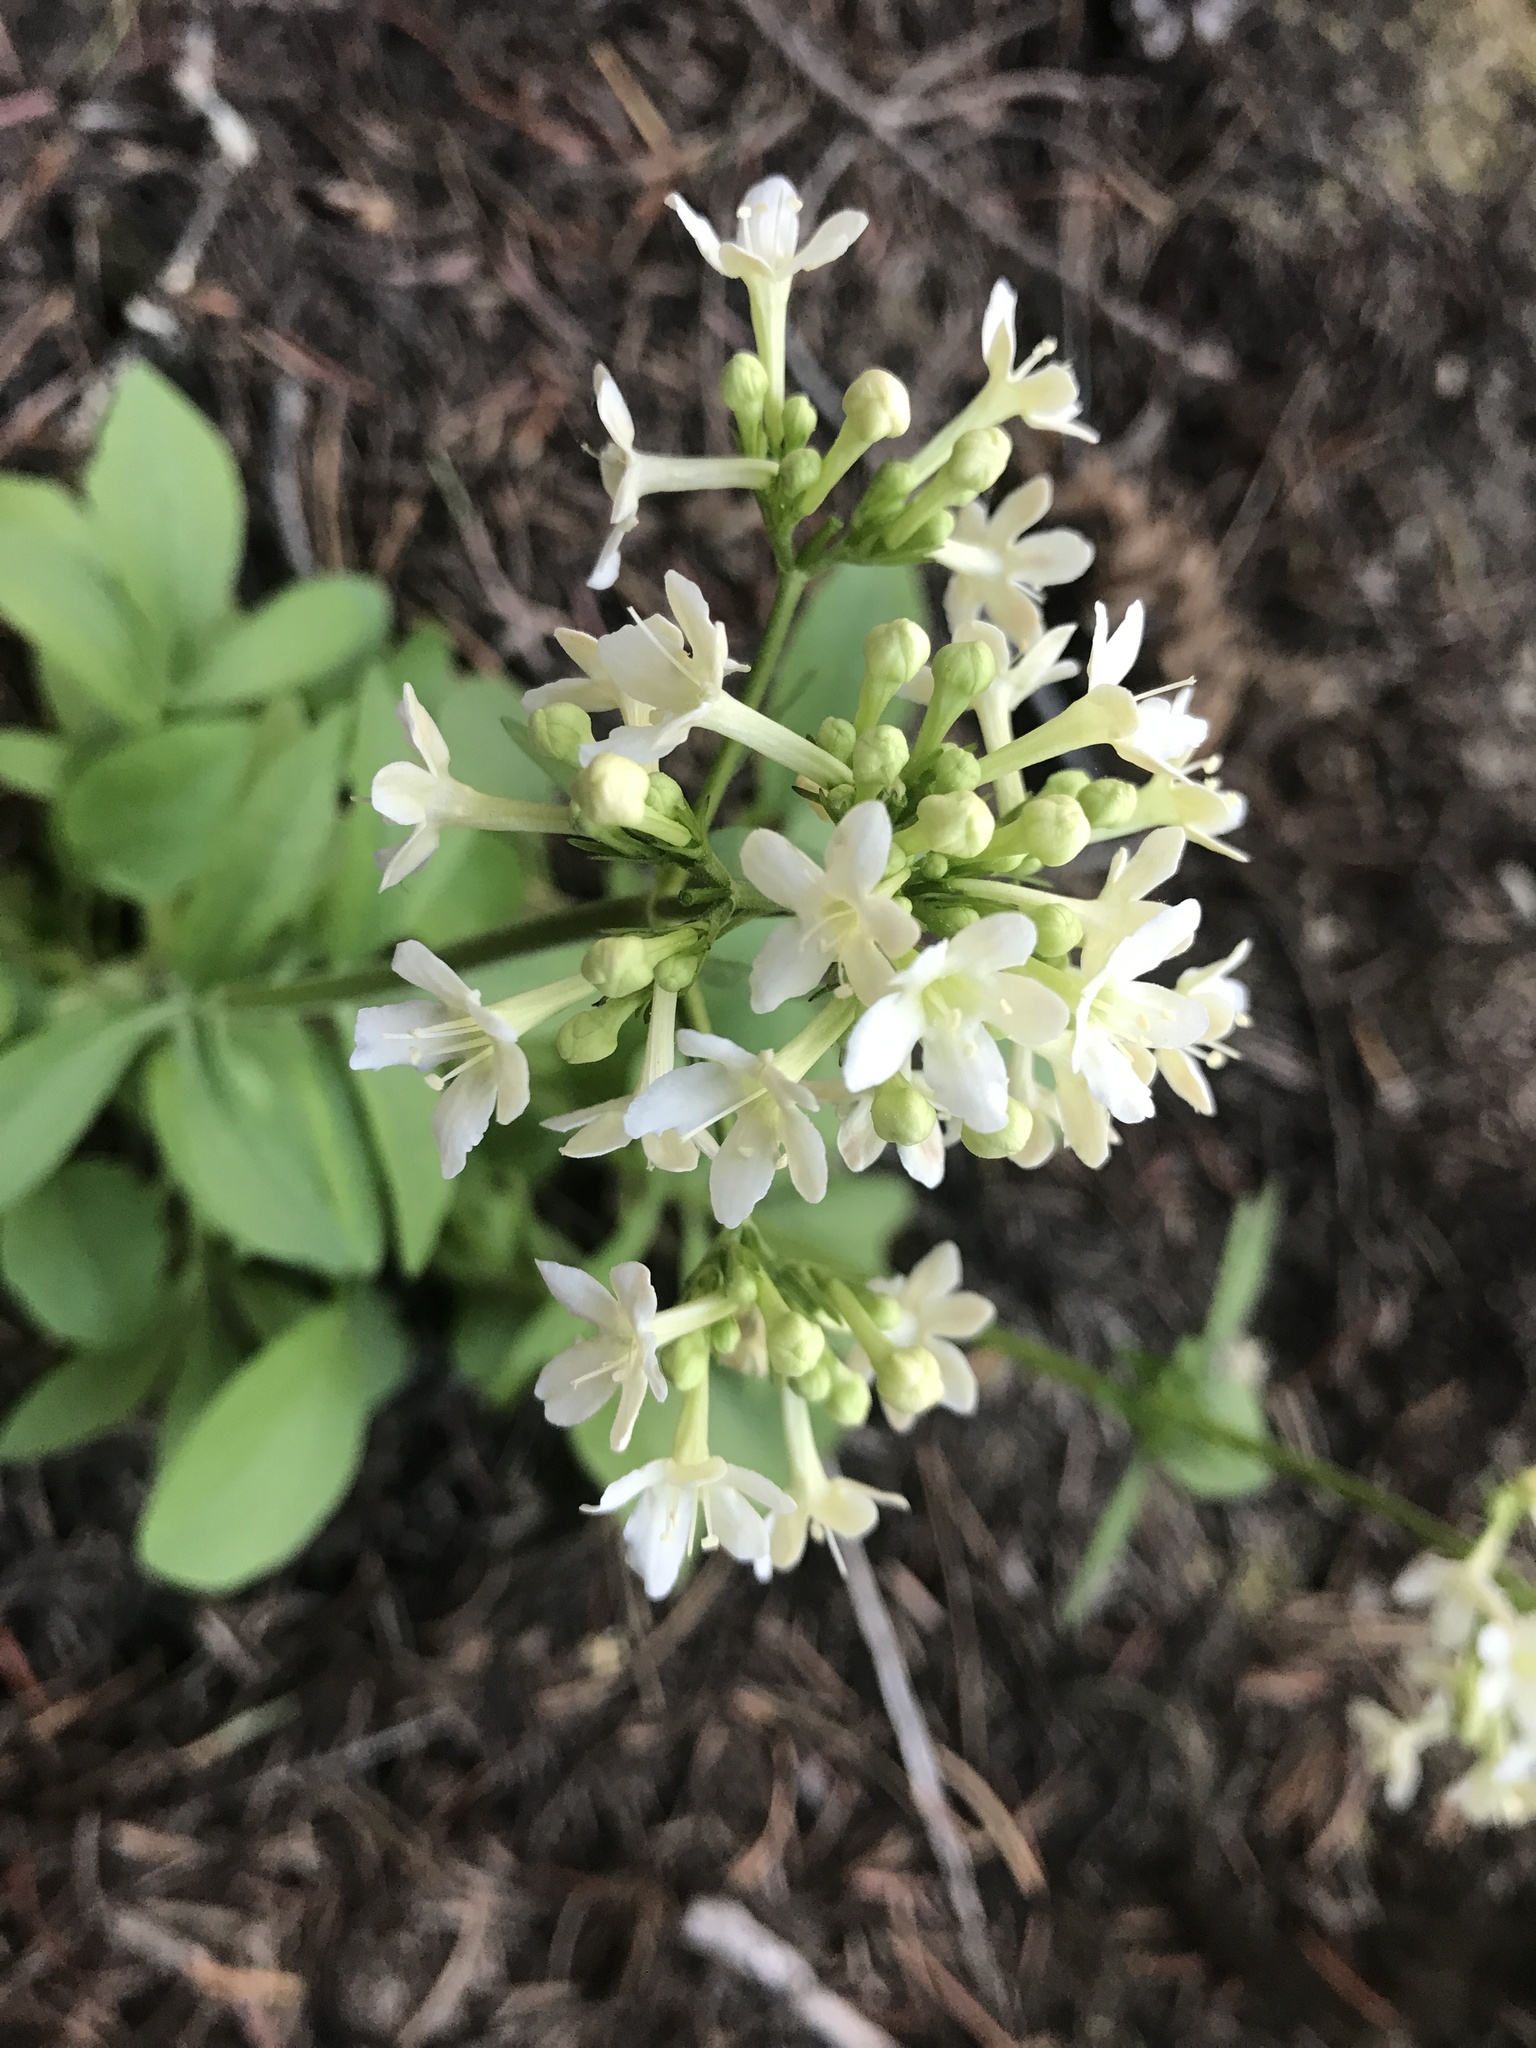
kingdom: Plantae
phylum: Tracheophyta
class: Magnoliopsida
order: Dipsacales
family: Caprifoliaceae
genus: Valeriana
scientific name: Valeriana columbiana
